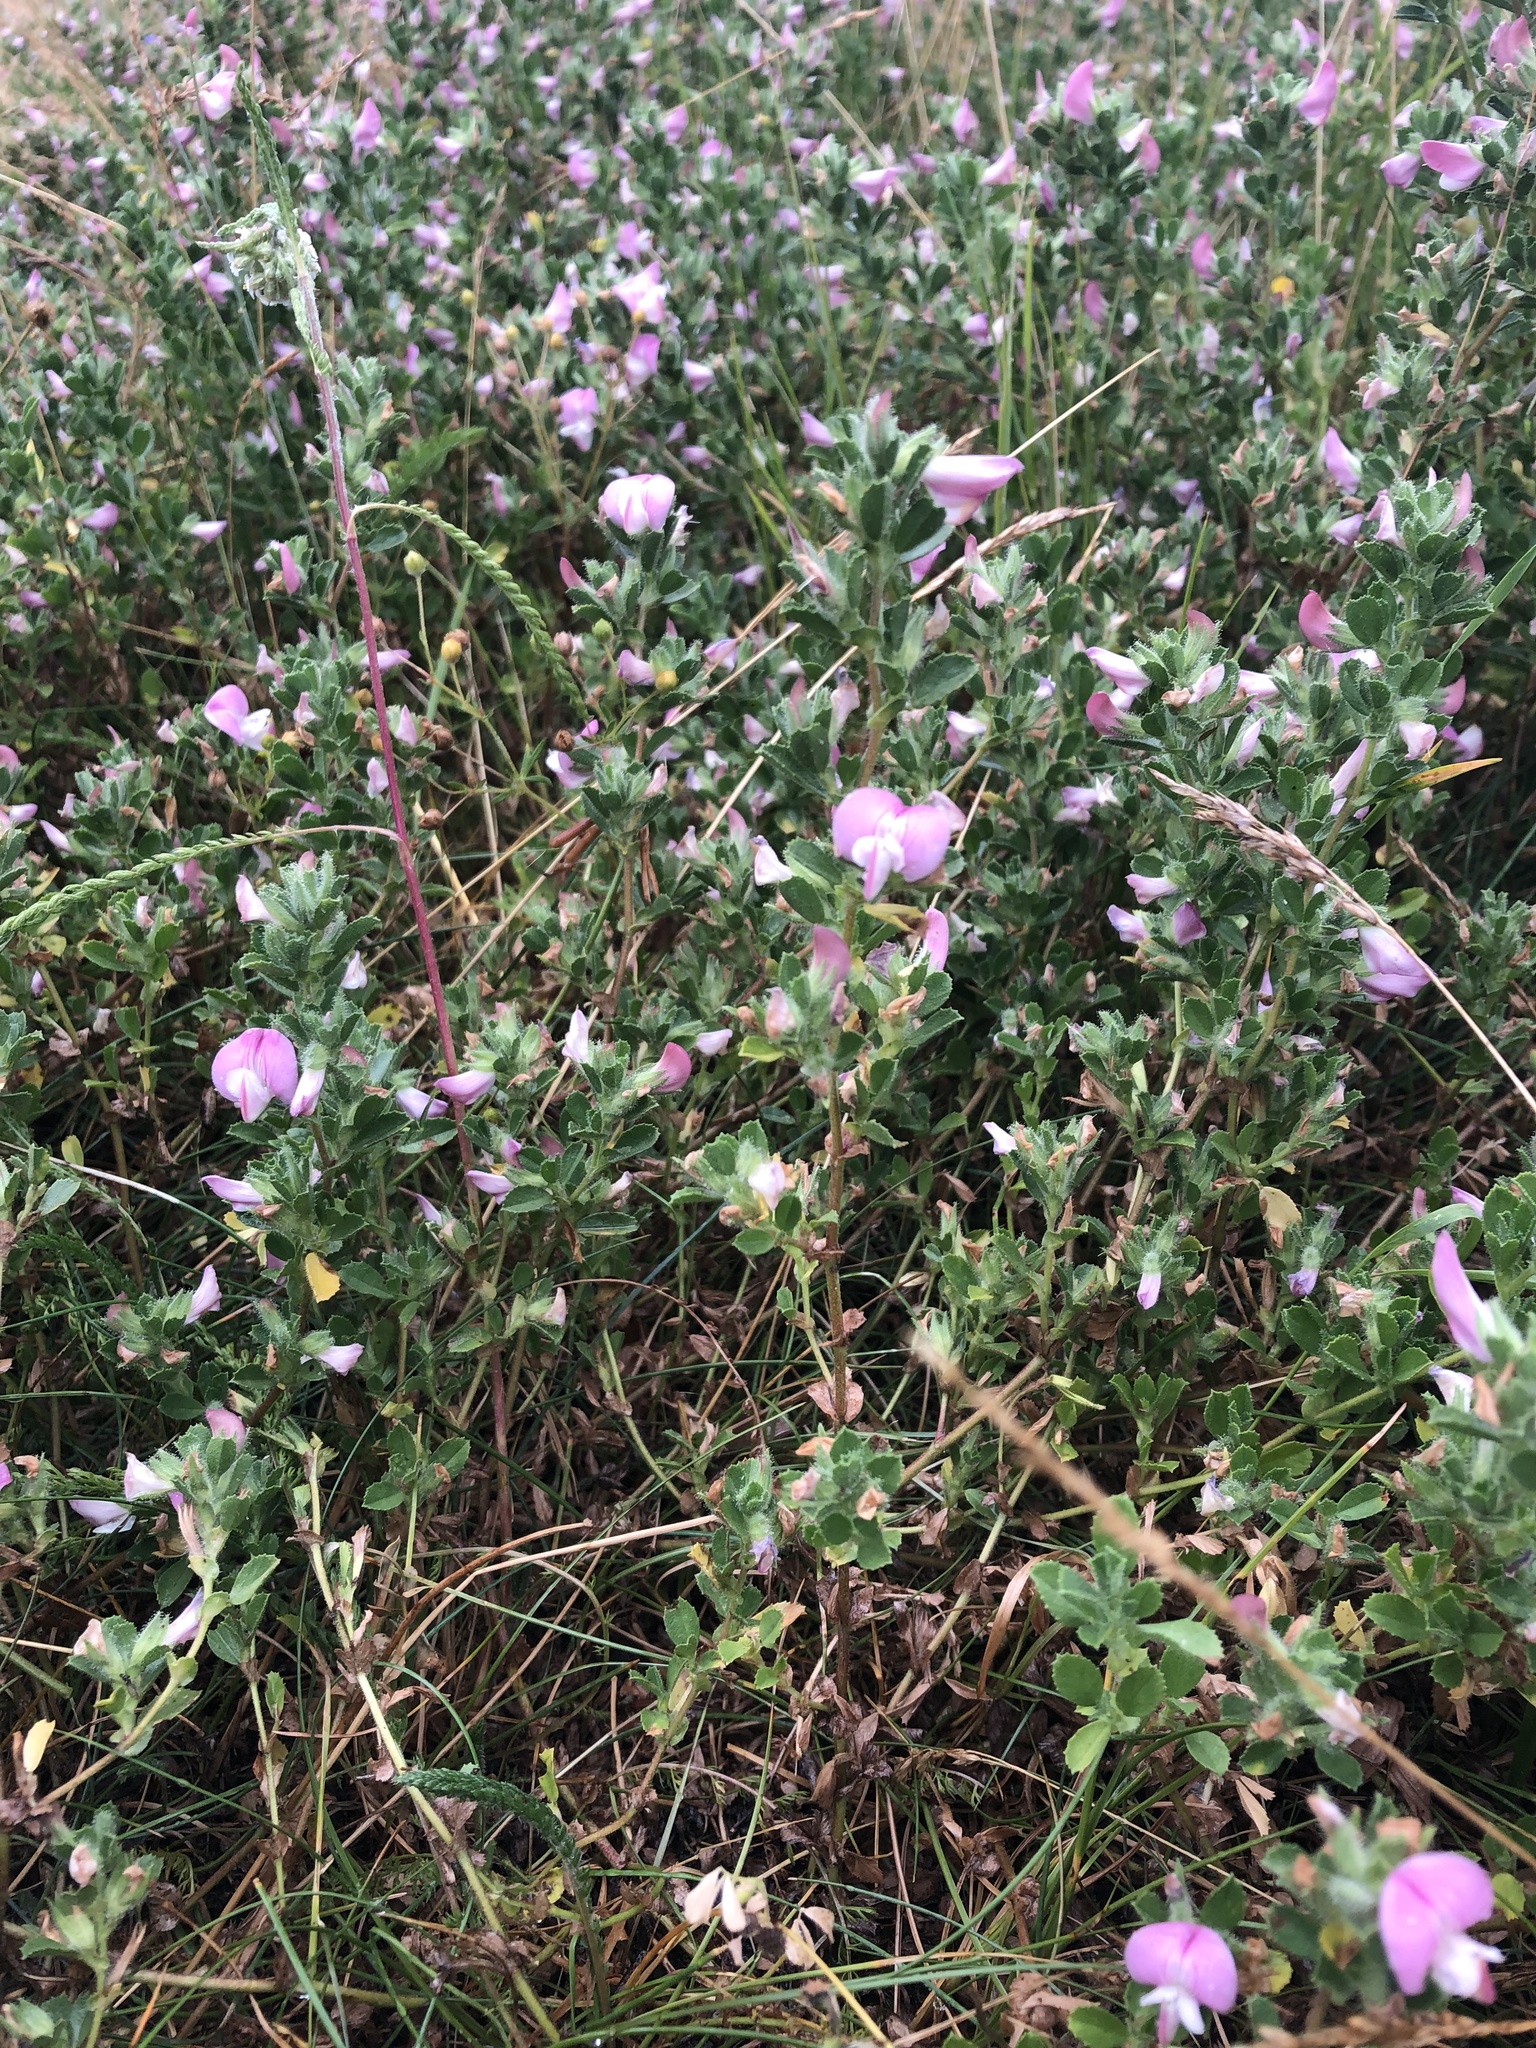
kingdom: Plantae
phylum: Tracheophyta
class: Magnoliopsida
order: Fabales
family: Fabaceae
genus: Ononis
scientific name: Ononis spinosa
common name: Spiny restharrow
